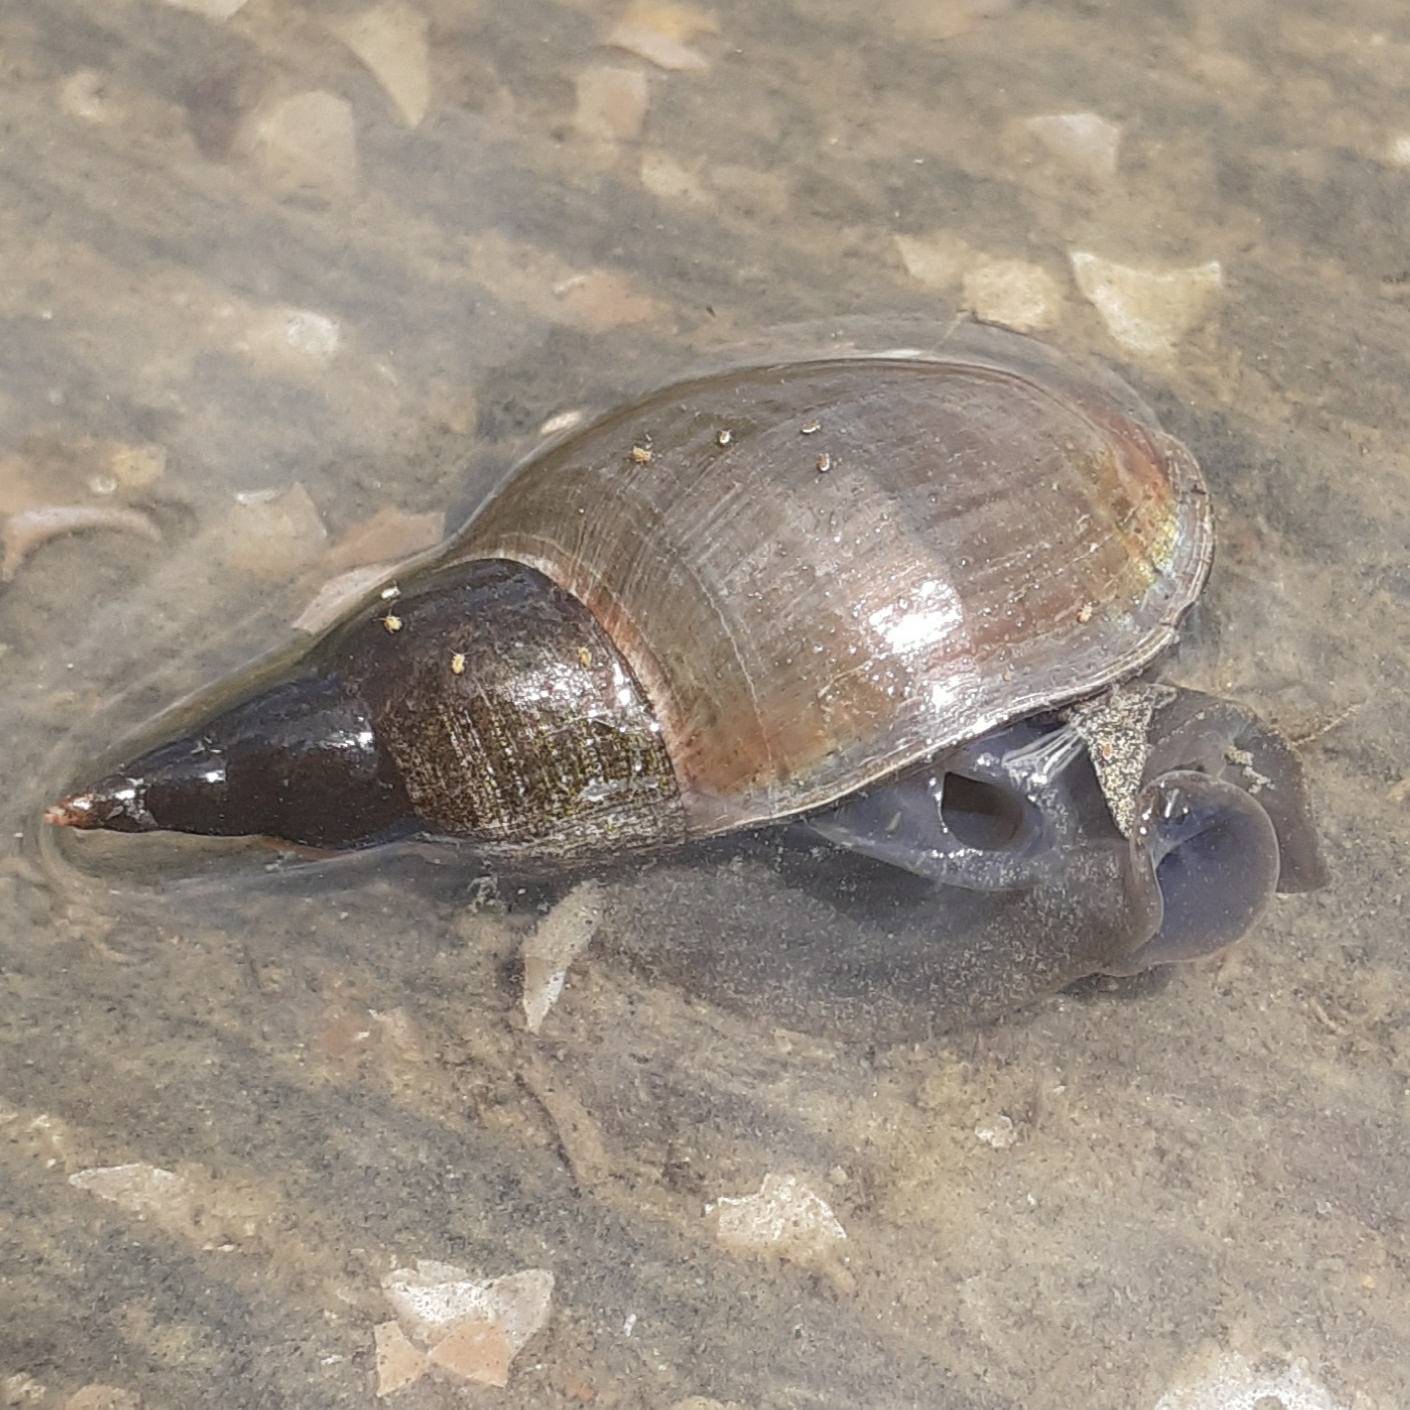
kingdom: Animalia
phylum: Mollusca
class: Gastropoda
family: Lymnaeidae
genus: Lymnaea
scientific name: Lymnaea stagnalis
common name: Great pond snail
